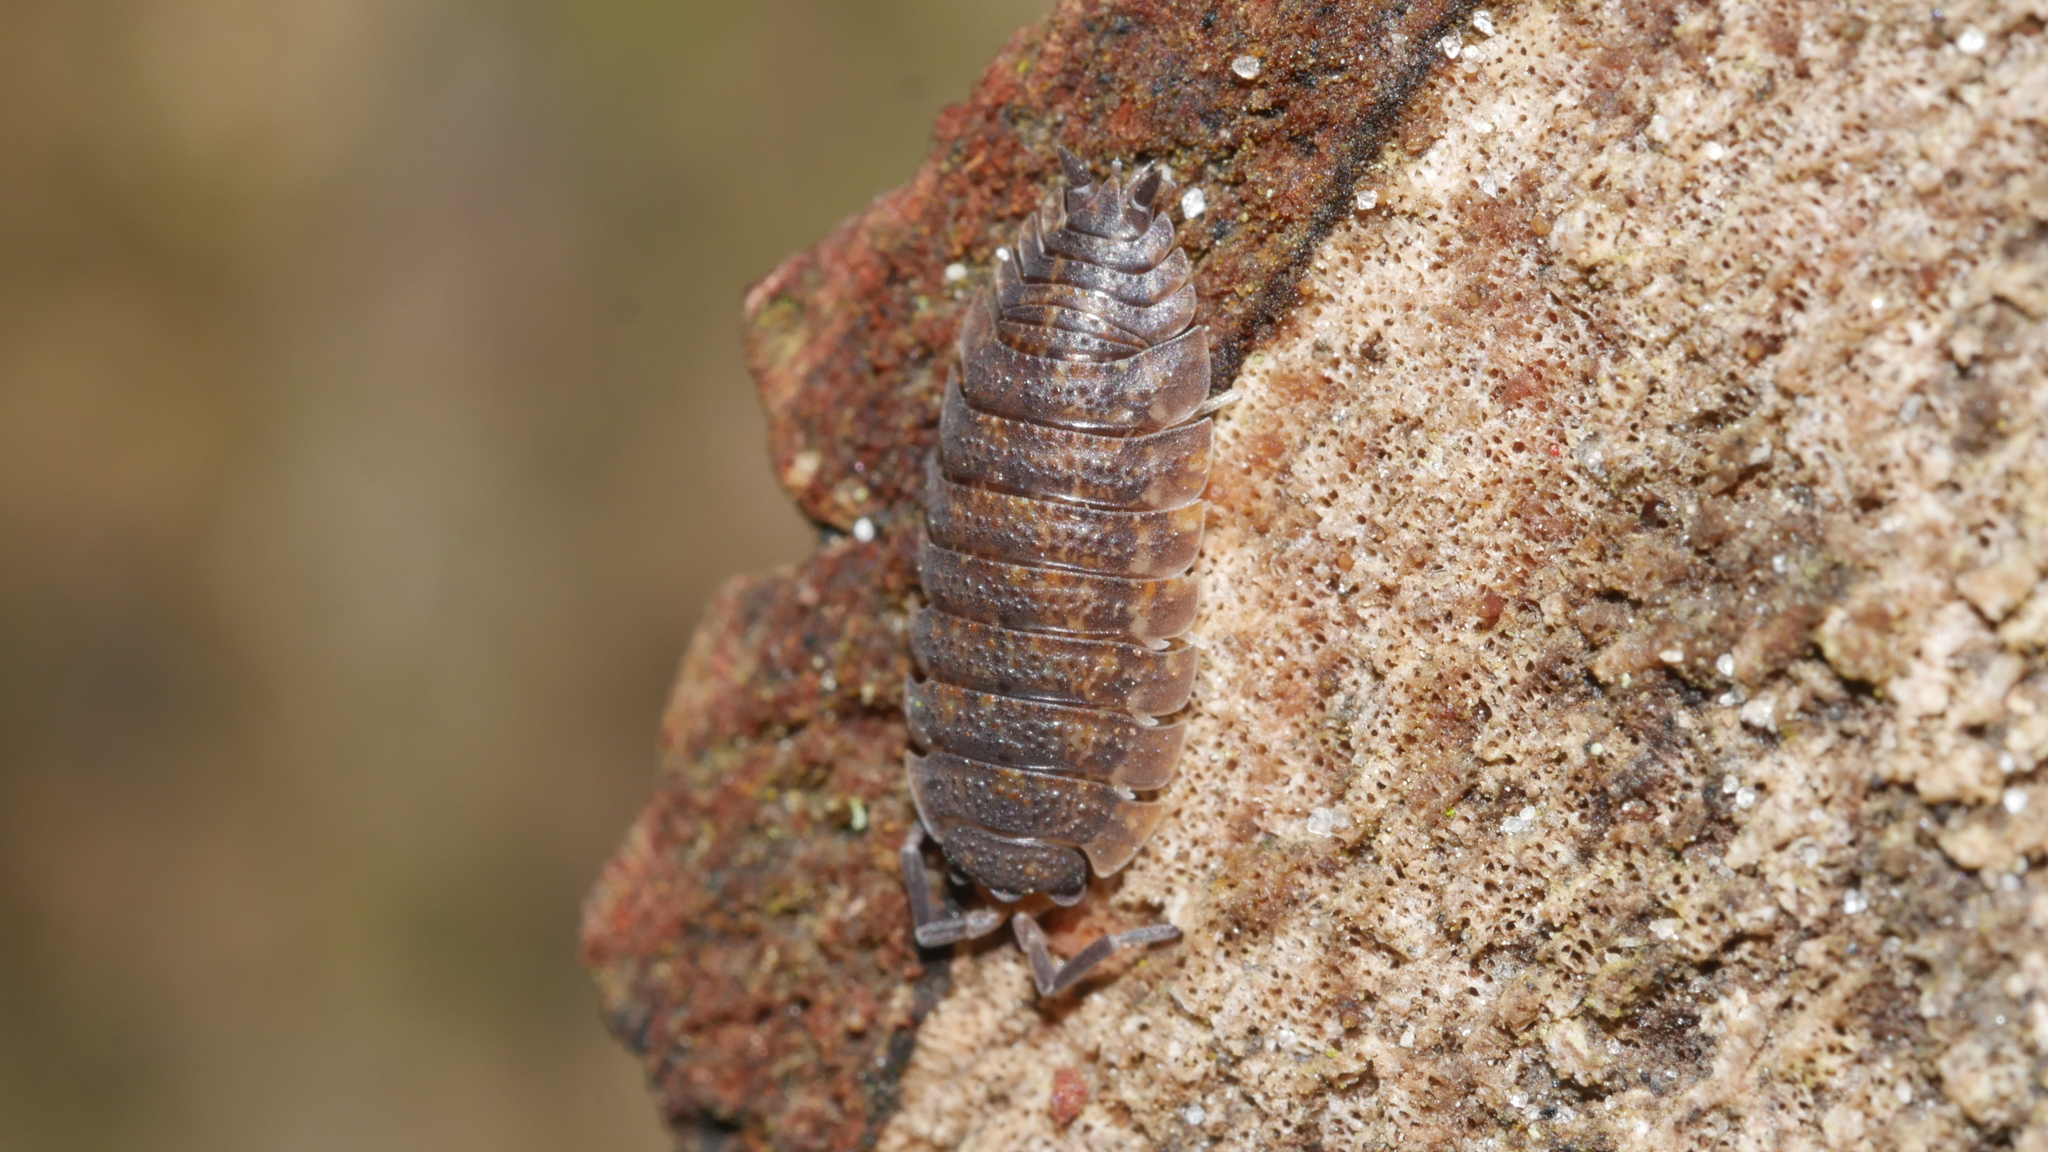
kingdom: Animalia
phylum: Arthropoda
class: Malacostraca
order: Isopoda
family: Porcellionidae
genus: Porcellio
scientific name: Porcellio scaber
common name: Common rough woodlouse
